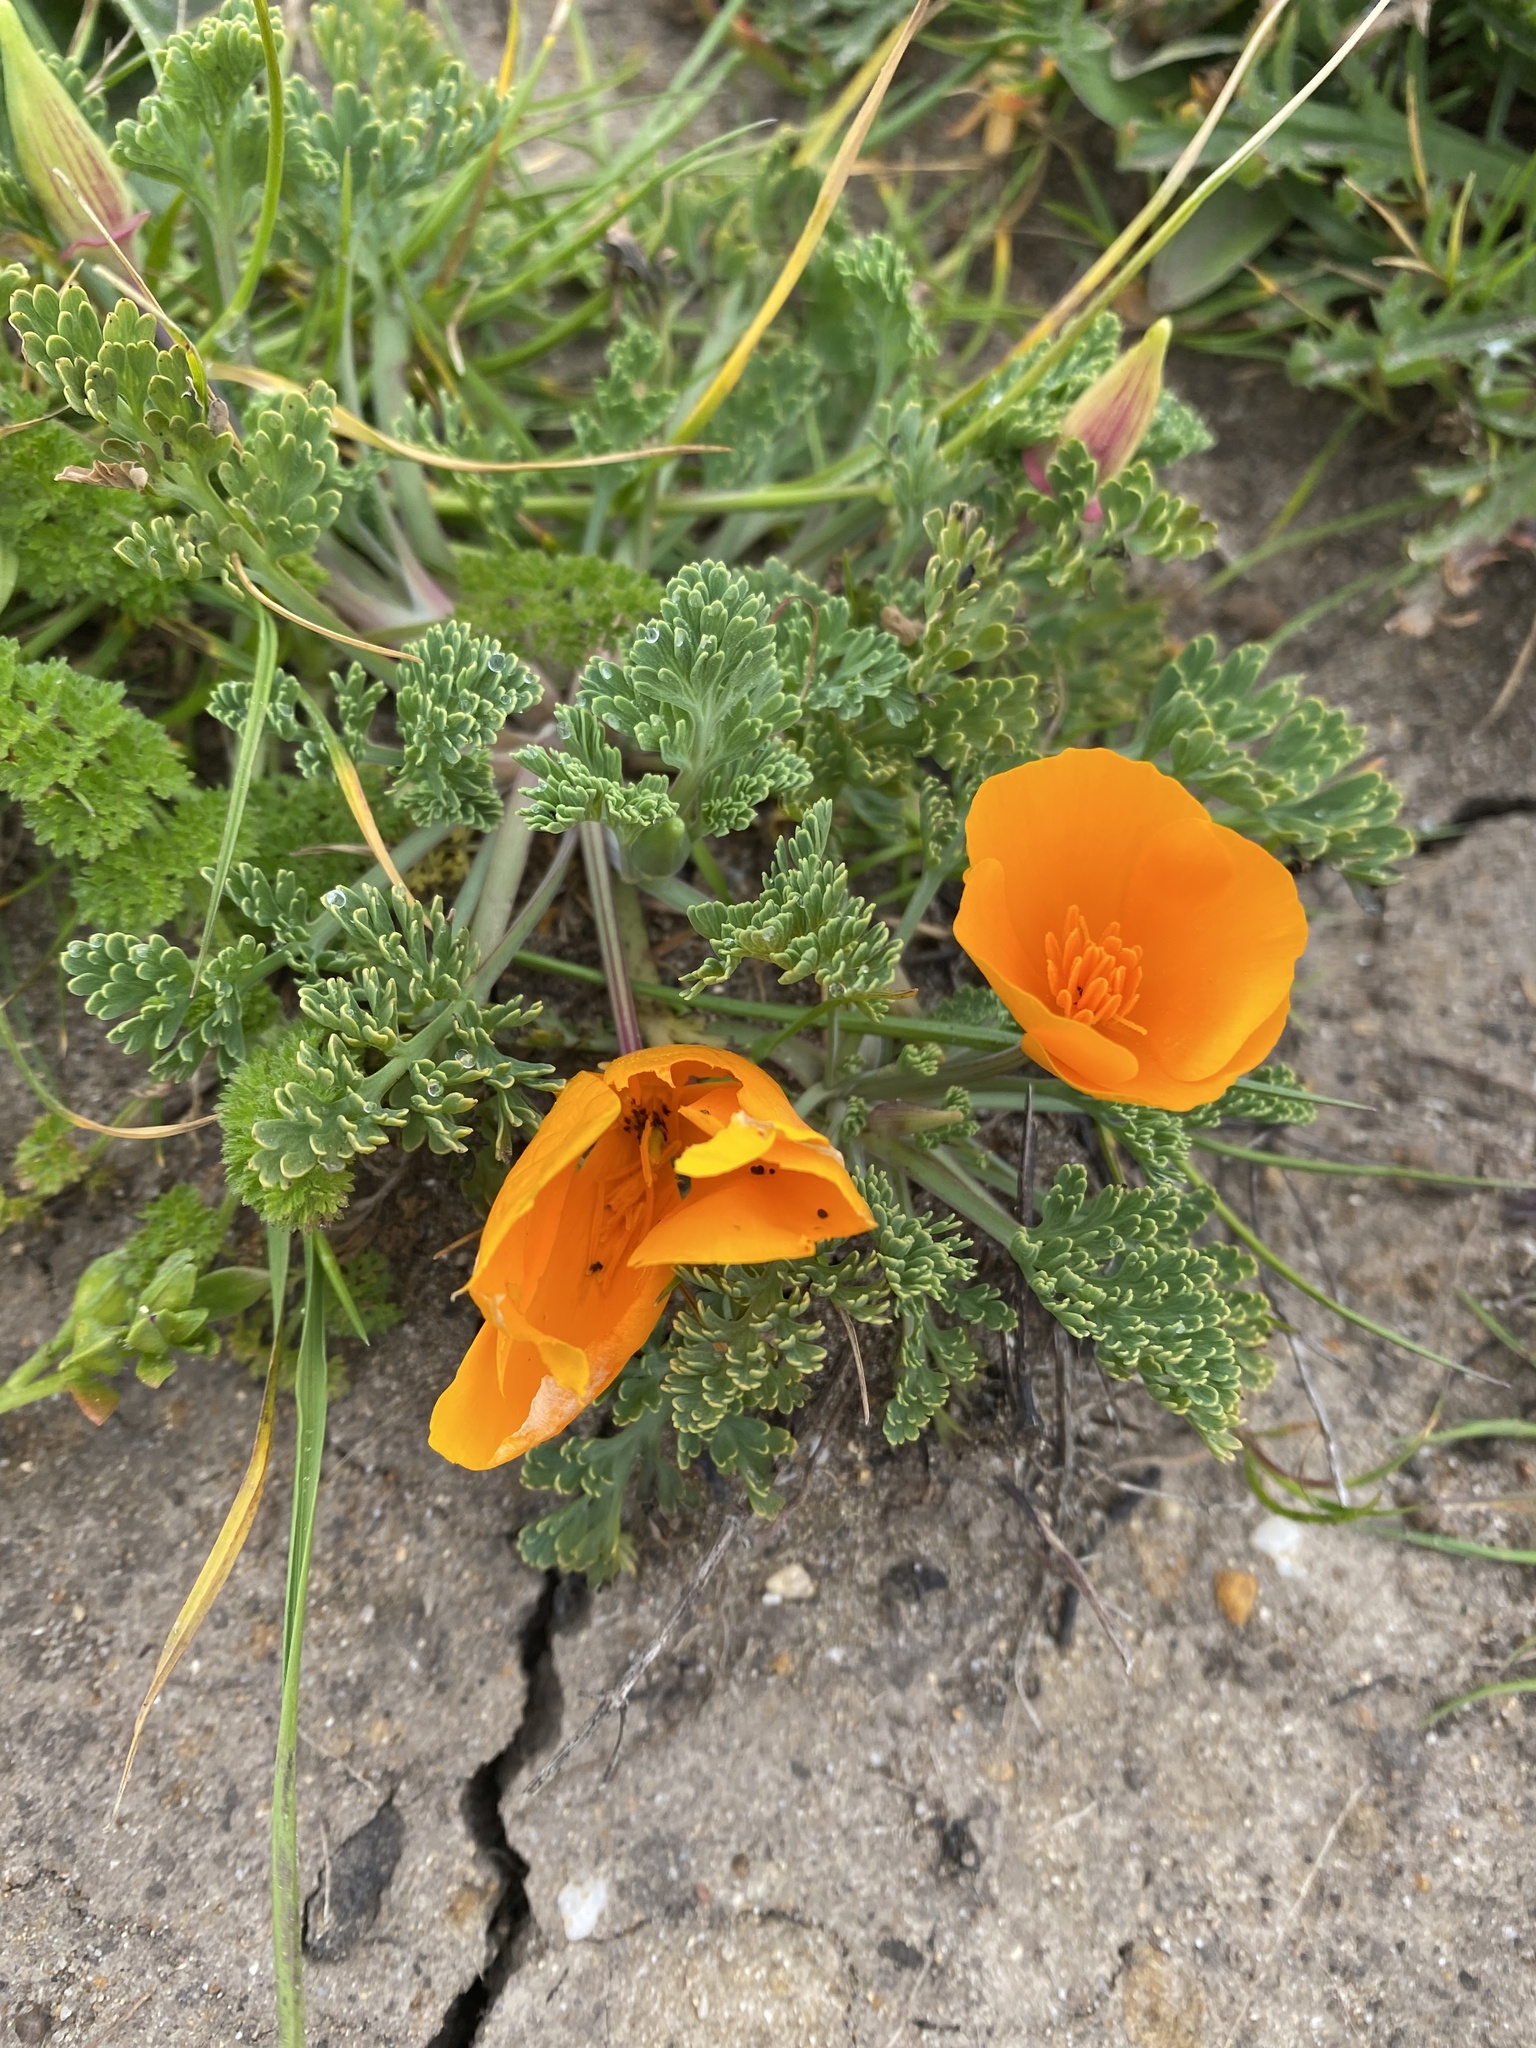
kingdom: Plantae
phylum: Tracheophyta
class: Magnoliopsida
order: Ranunculales
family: Papaveraceae
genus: Eschscholzia
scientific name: Eschscholzia californica
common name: California poppy
